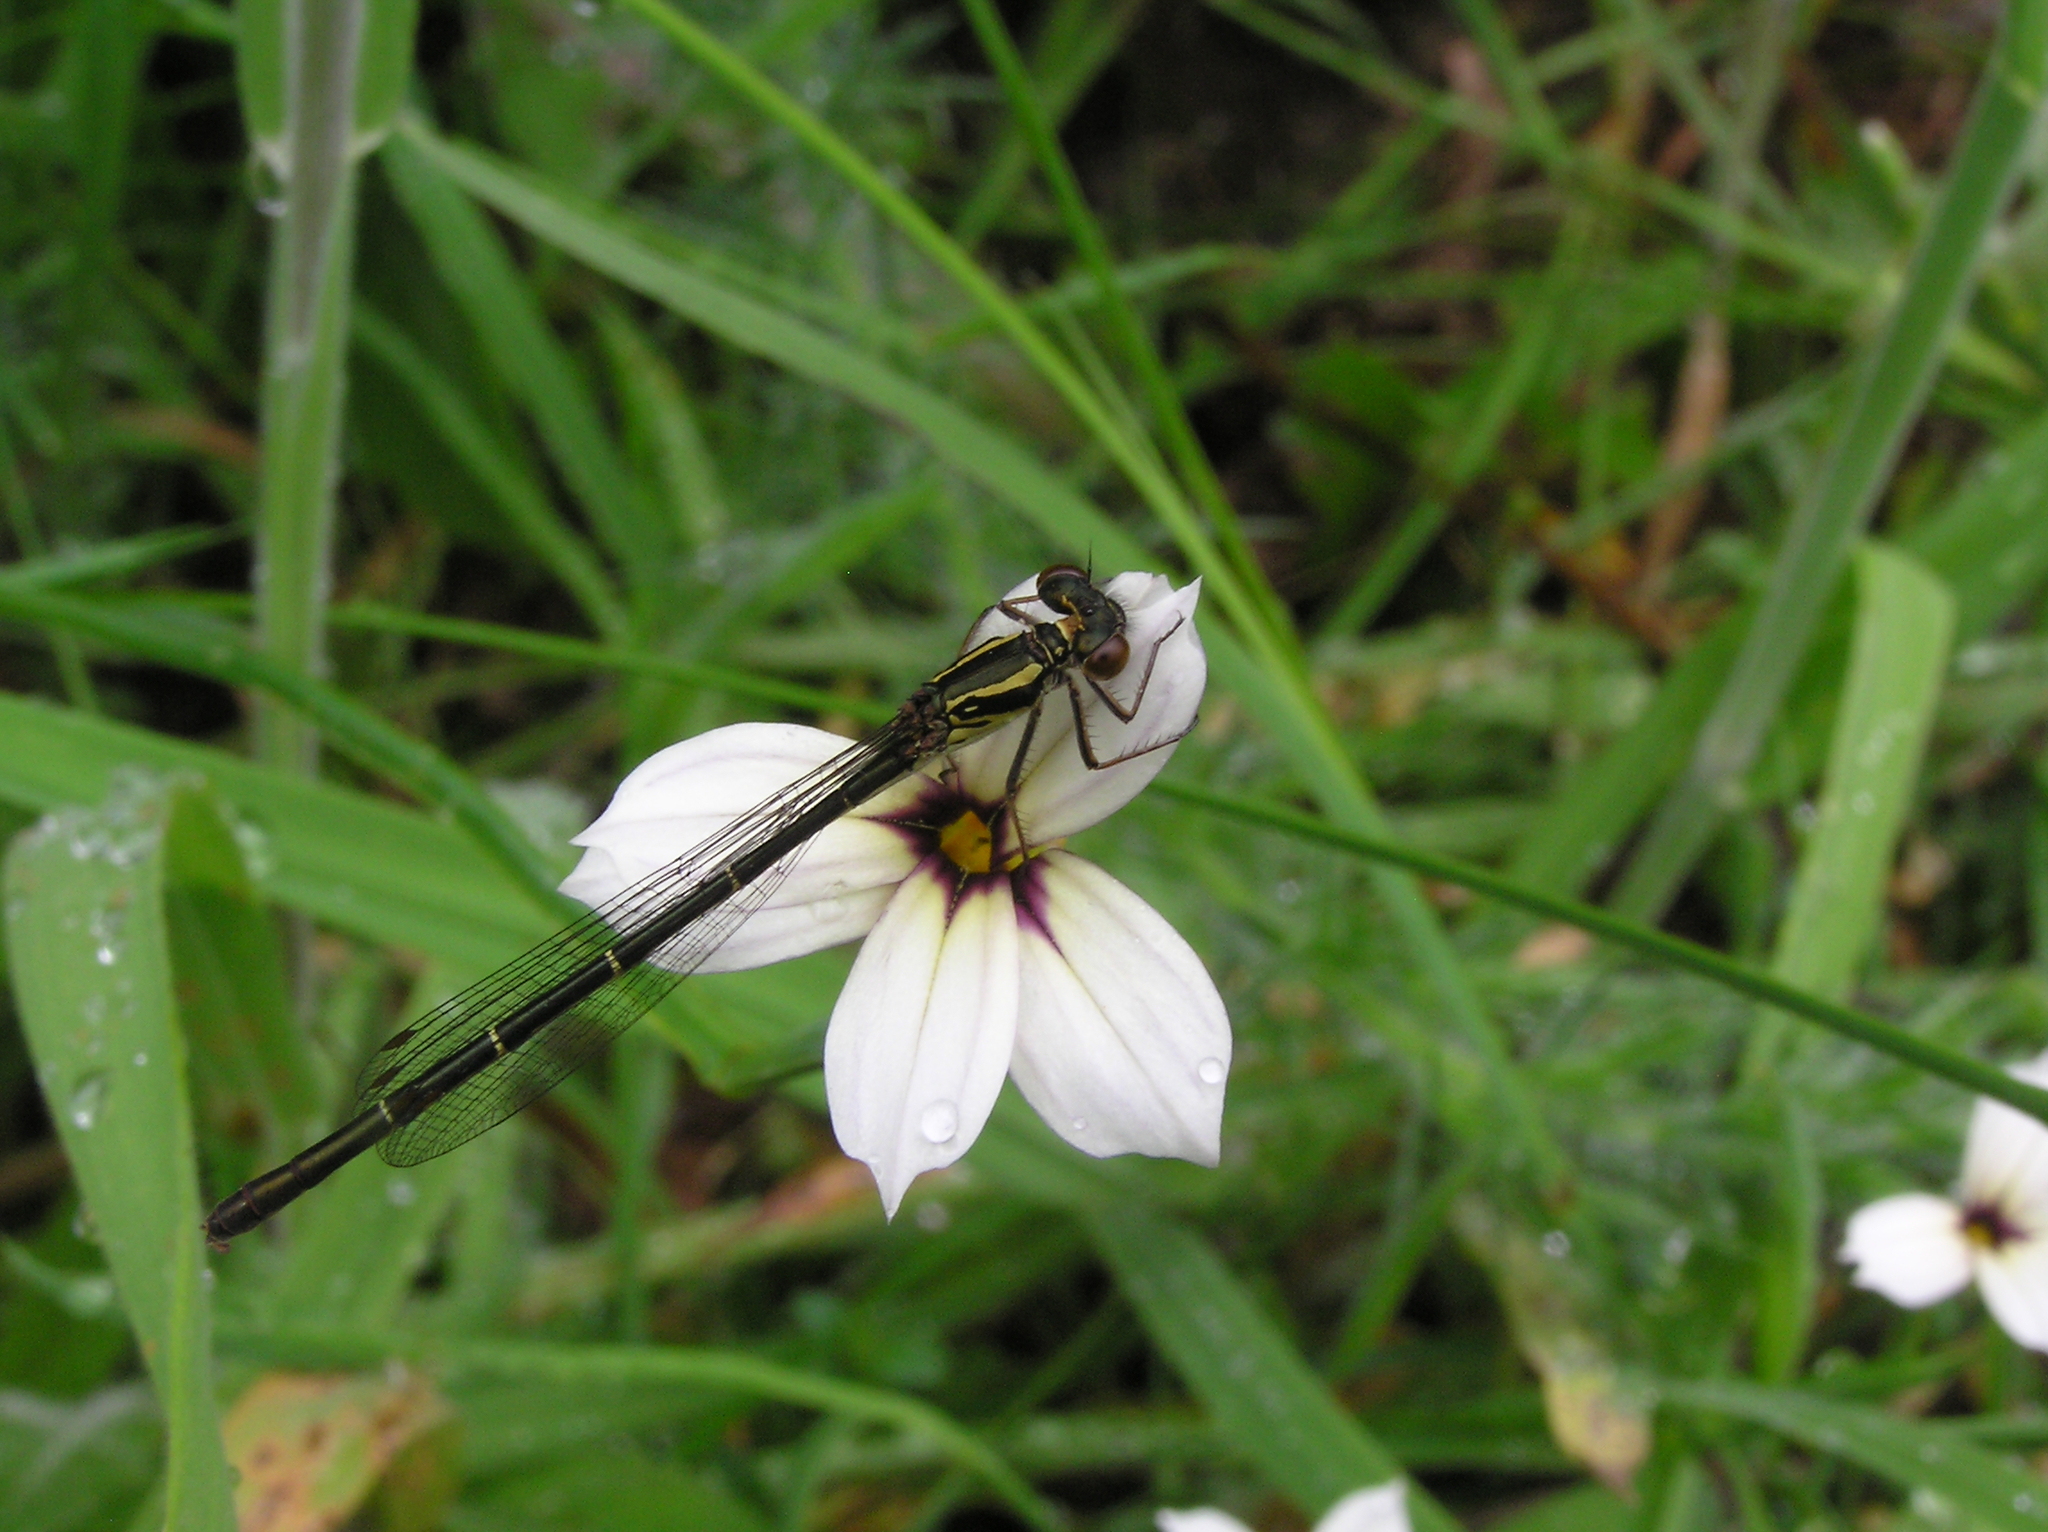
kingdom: Animalia
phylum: Arthropoda
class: Insecta
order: Odonata
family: Coenagrionidae
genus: Xanthocnemis
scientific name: Xanthocnemis zealandica
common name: Common redcoat damselfly
